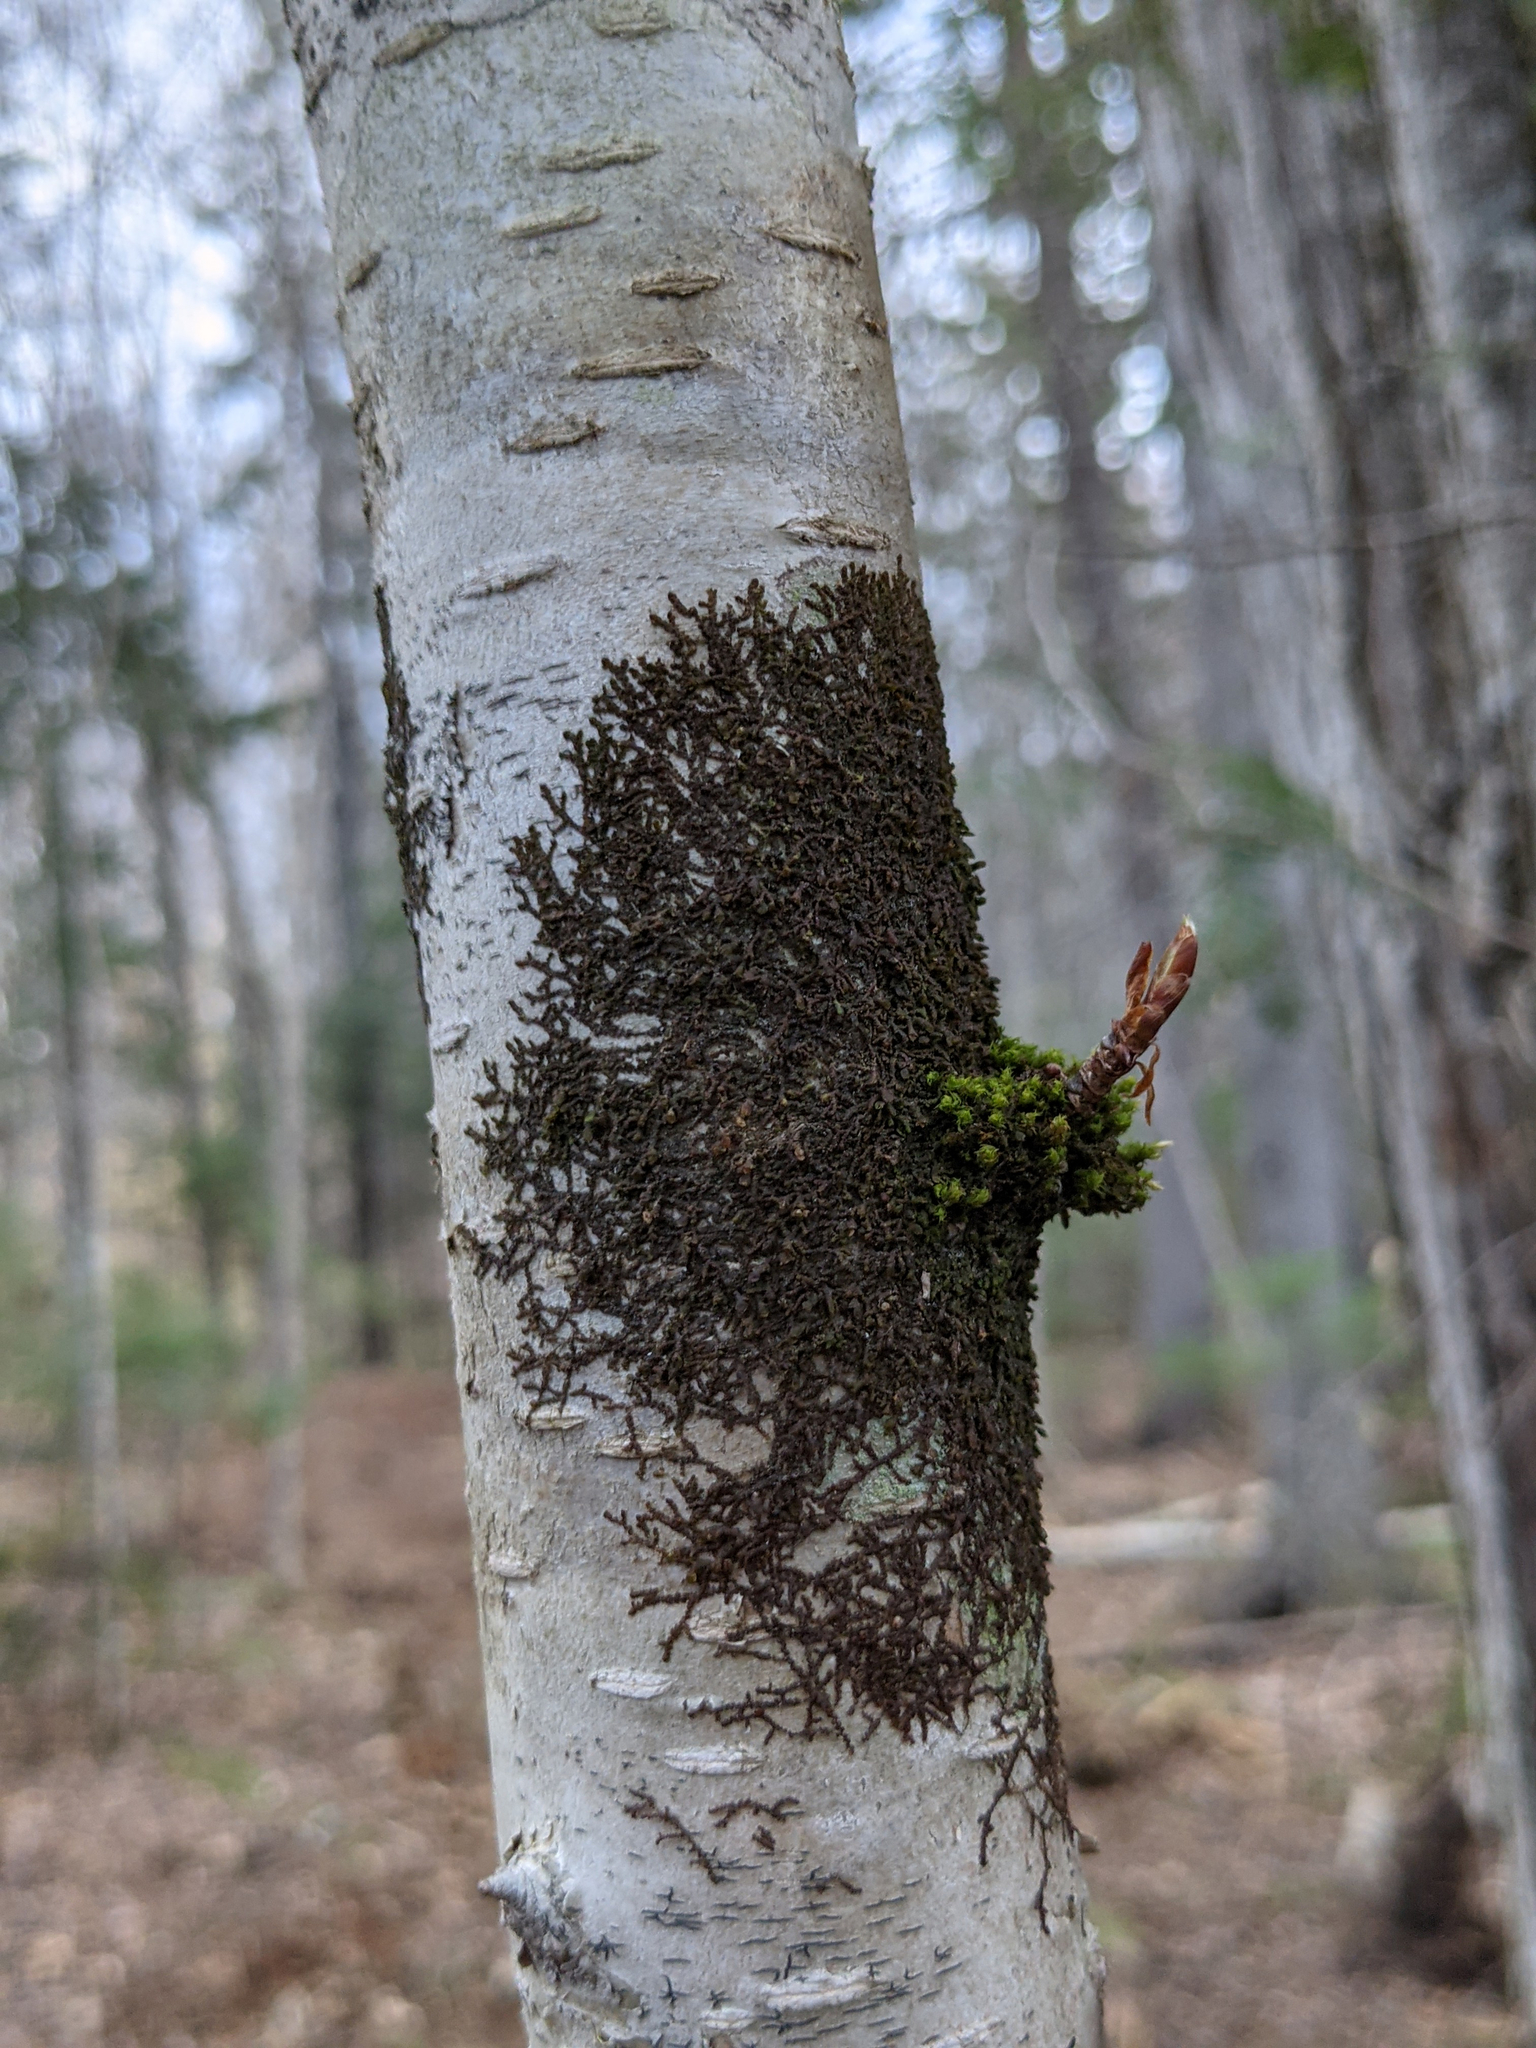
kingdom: Plantae
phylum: Bryophyta
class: Bryopsida
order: Orthotrichales
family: Orthotrichaceae
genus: Ulota
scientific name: Ulota crispa
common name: Crisped pincushion moss
